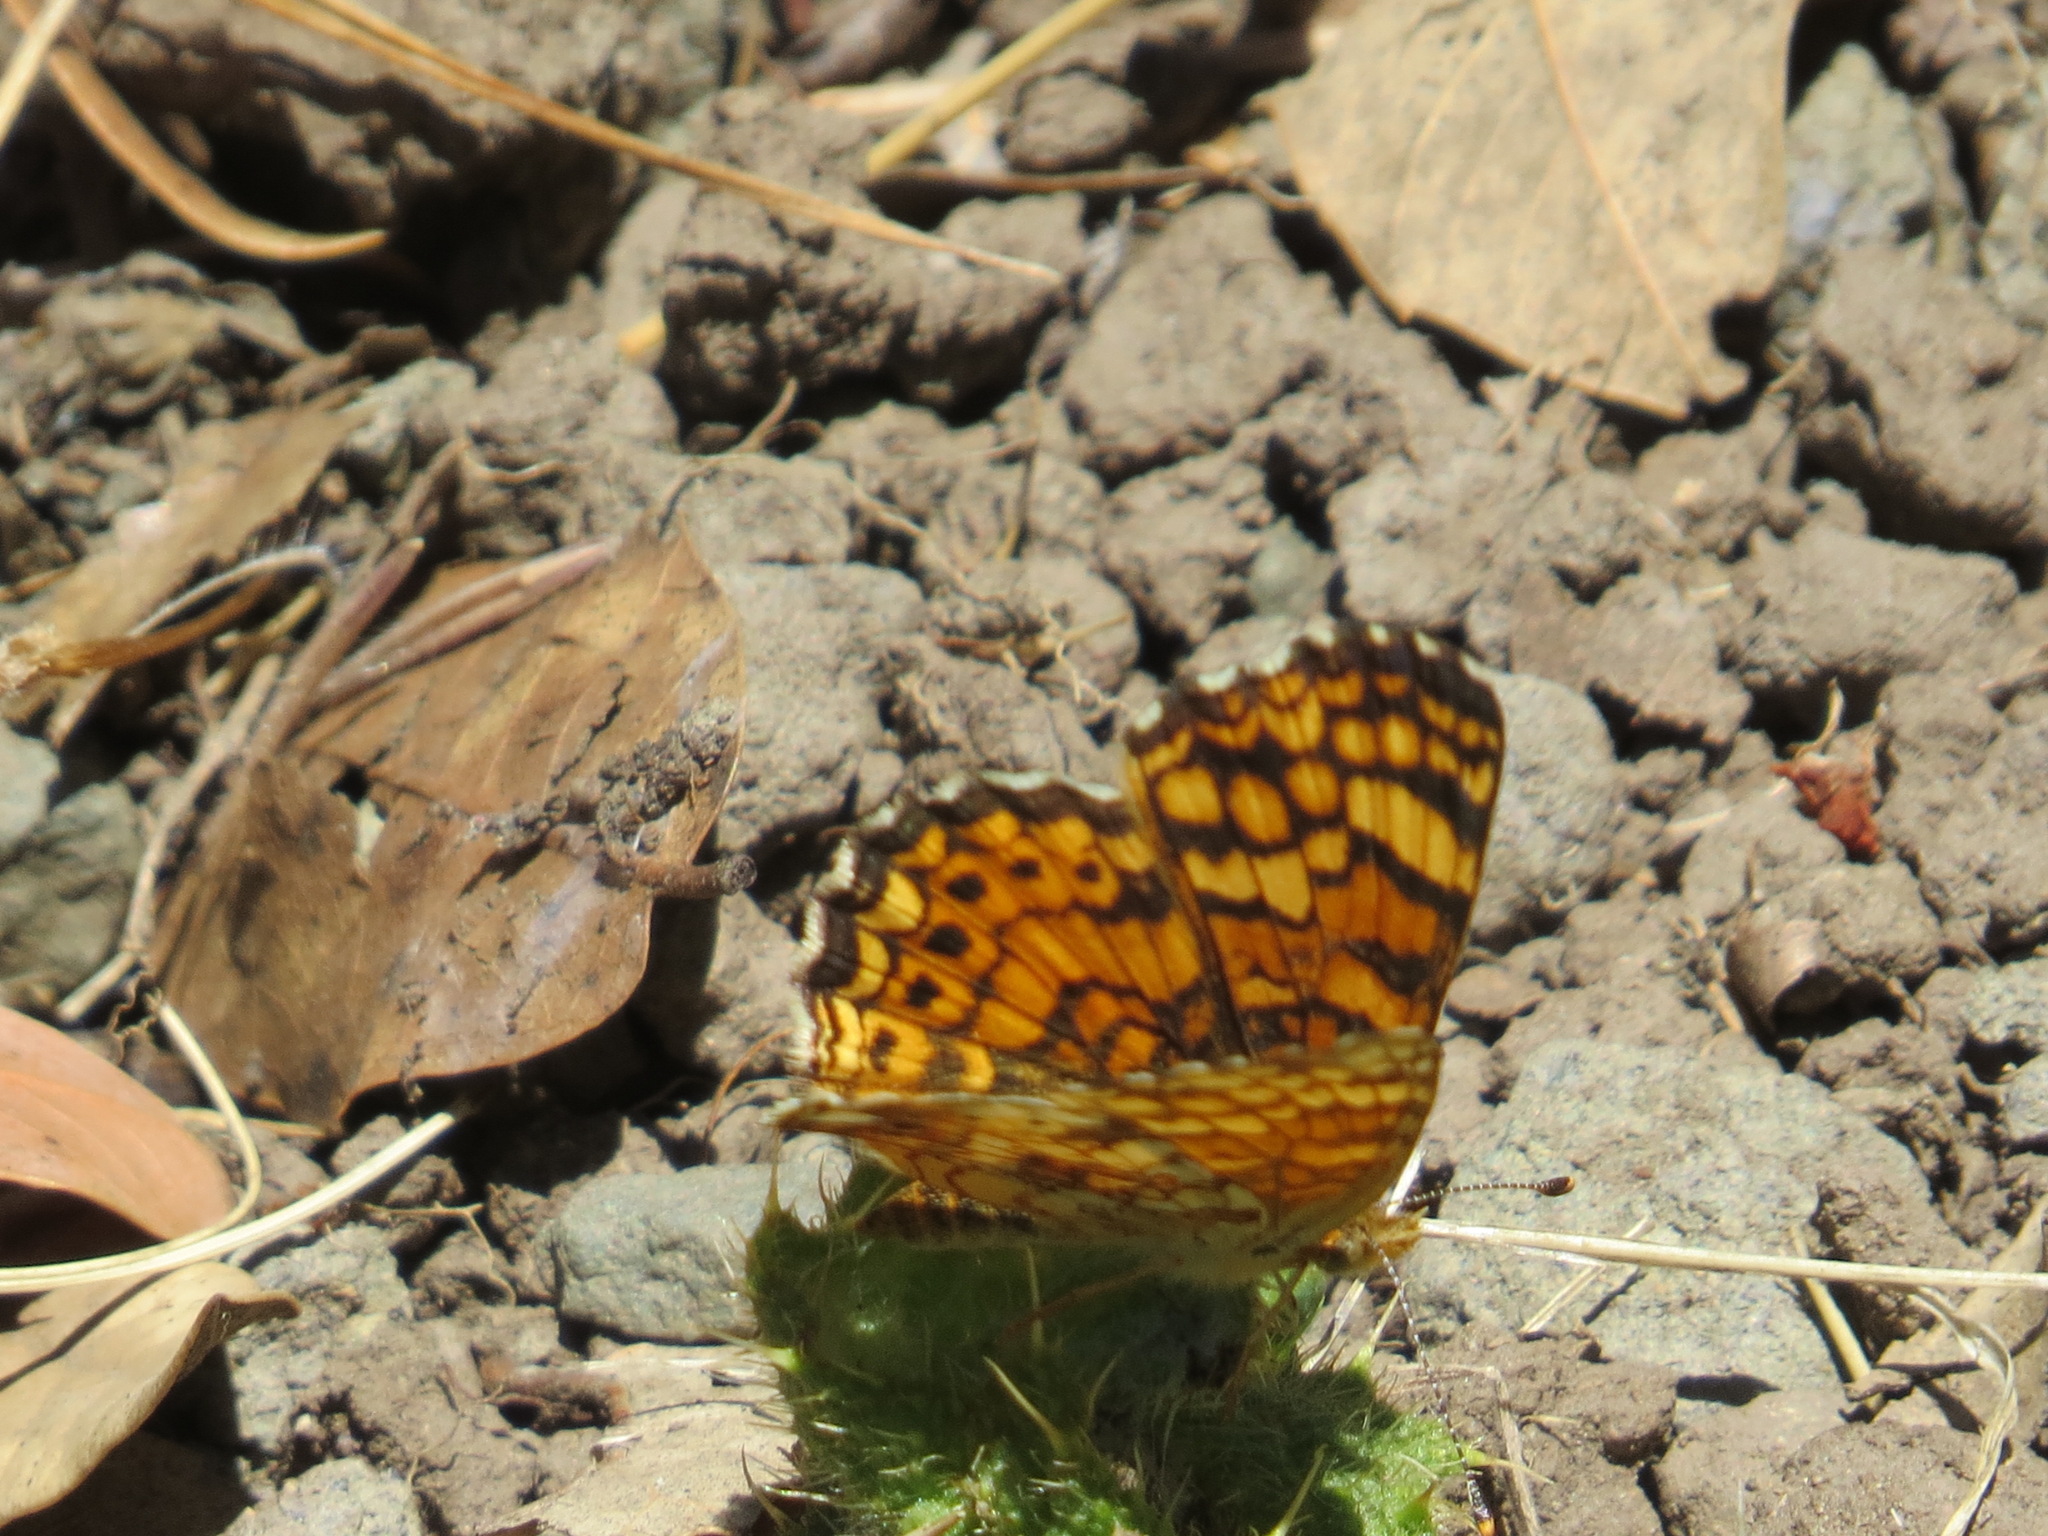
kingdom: Animalia
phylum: Arthropoda
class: Insecta
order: Lepidoptera
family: Nymphalidae
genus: Eresia
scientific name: Eresia aveyrona
